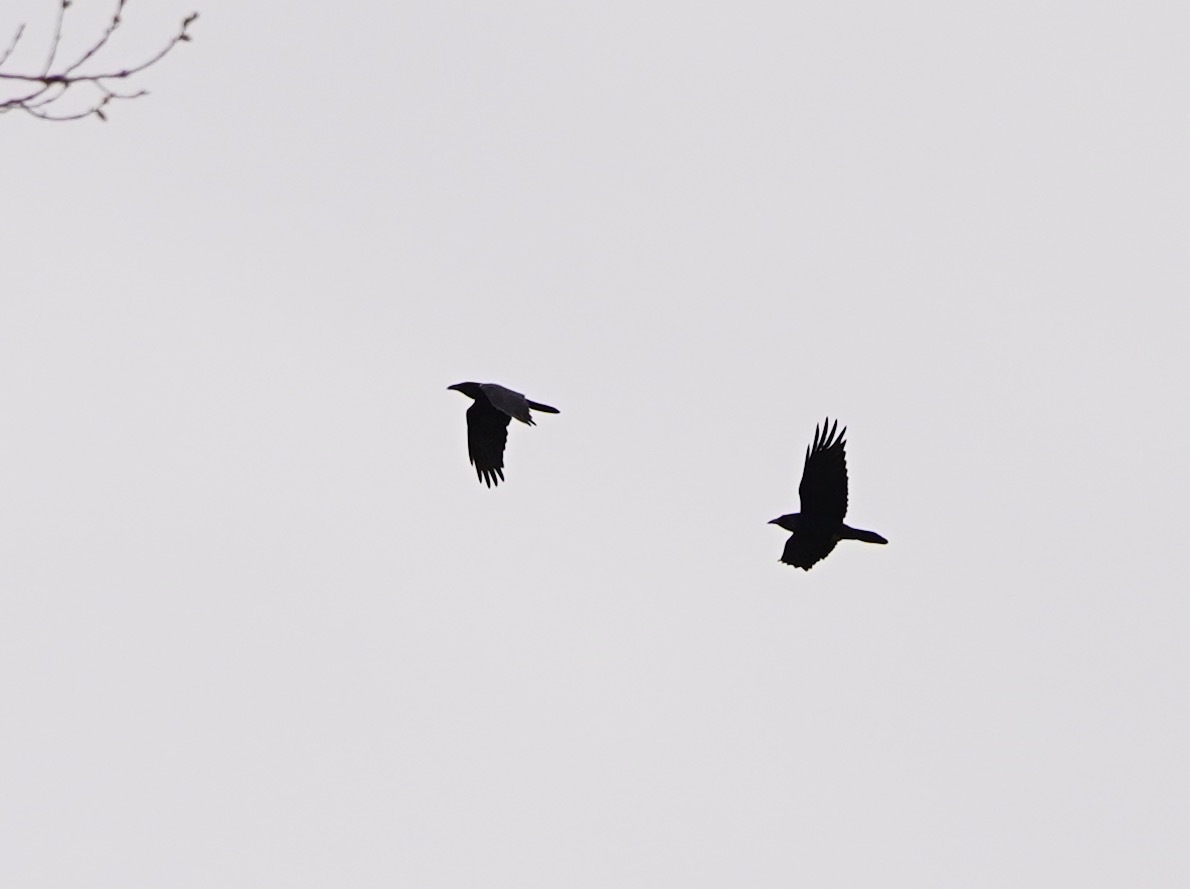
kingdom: Animalia
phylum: Chordata
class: Aves
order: Passeriformes
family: Corvidae
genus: Corvus
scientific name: Corvus corax
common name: Common raven
